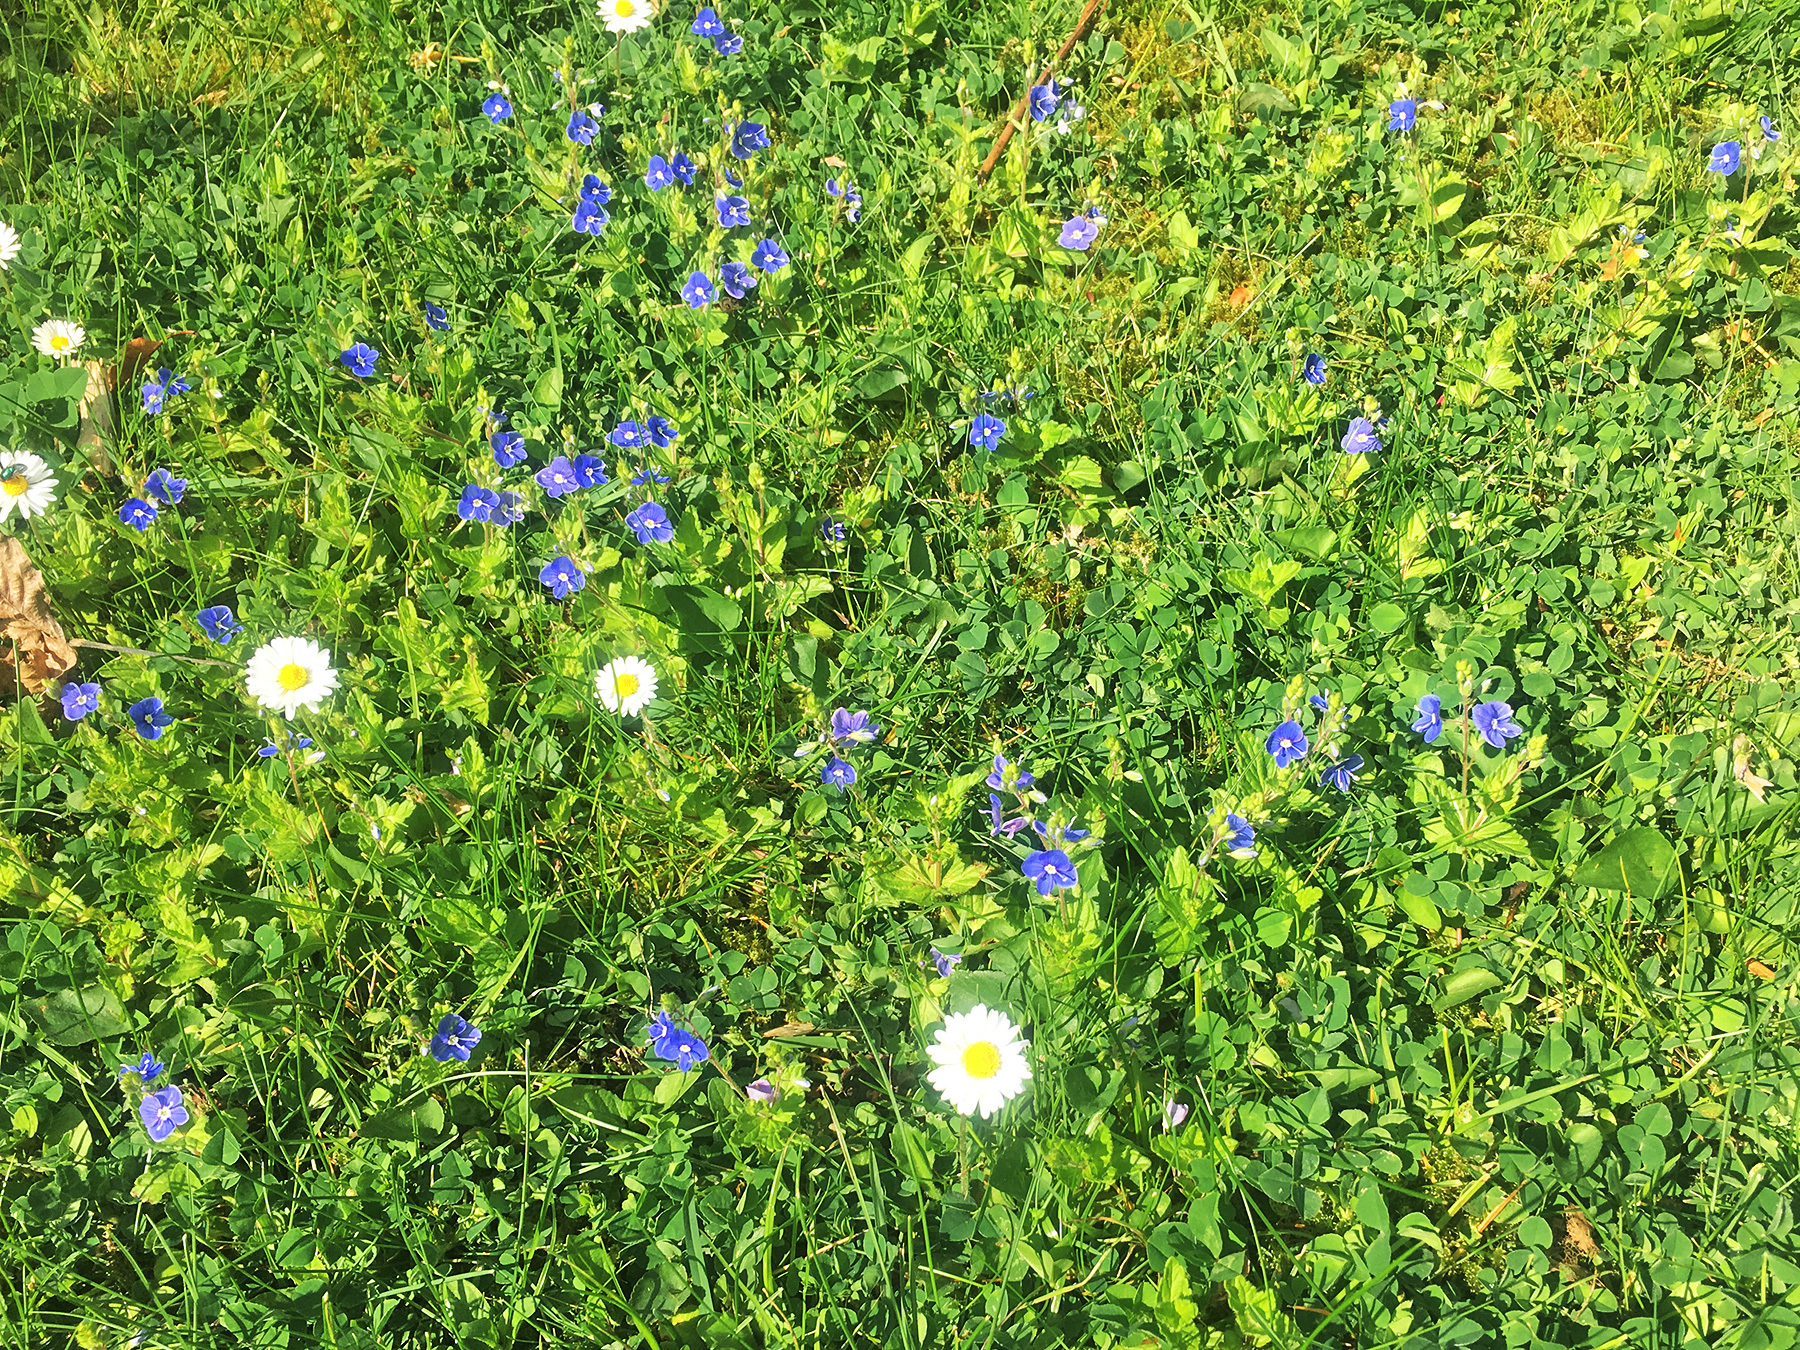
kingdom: Plantae
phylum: Tracheophyta
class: Magnoliopsida
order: Lamiales
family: Plantaginaceae
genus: Veronica
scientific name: Veronica chamaedrys
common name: Germander speedwell
